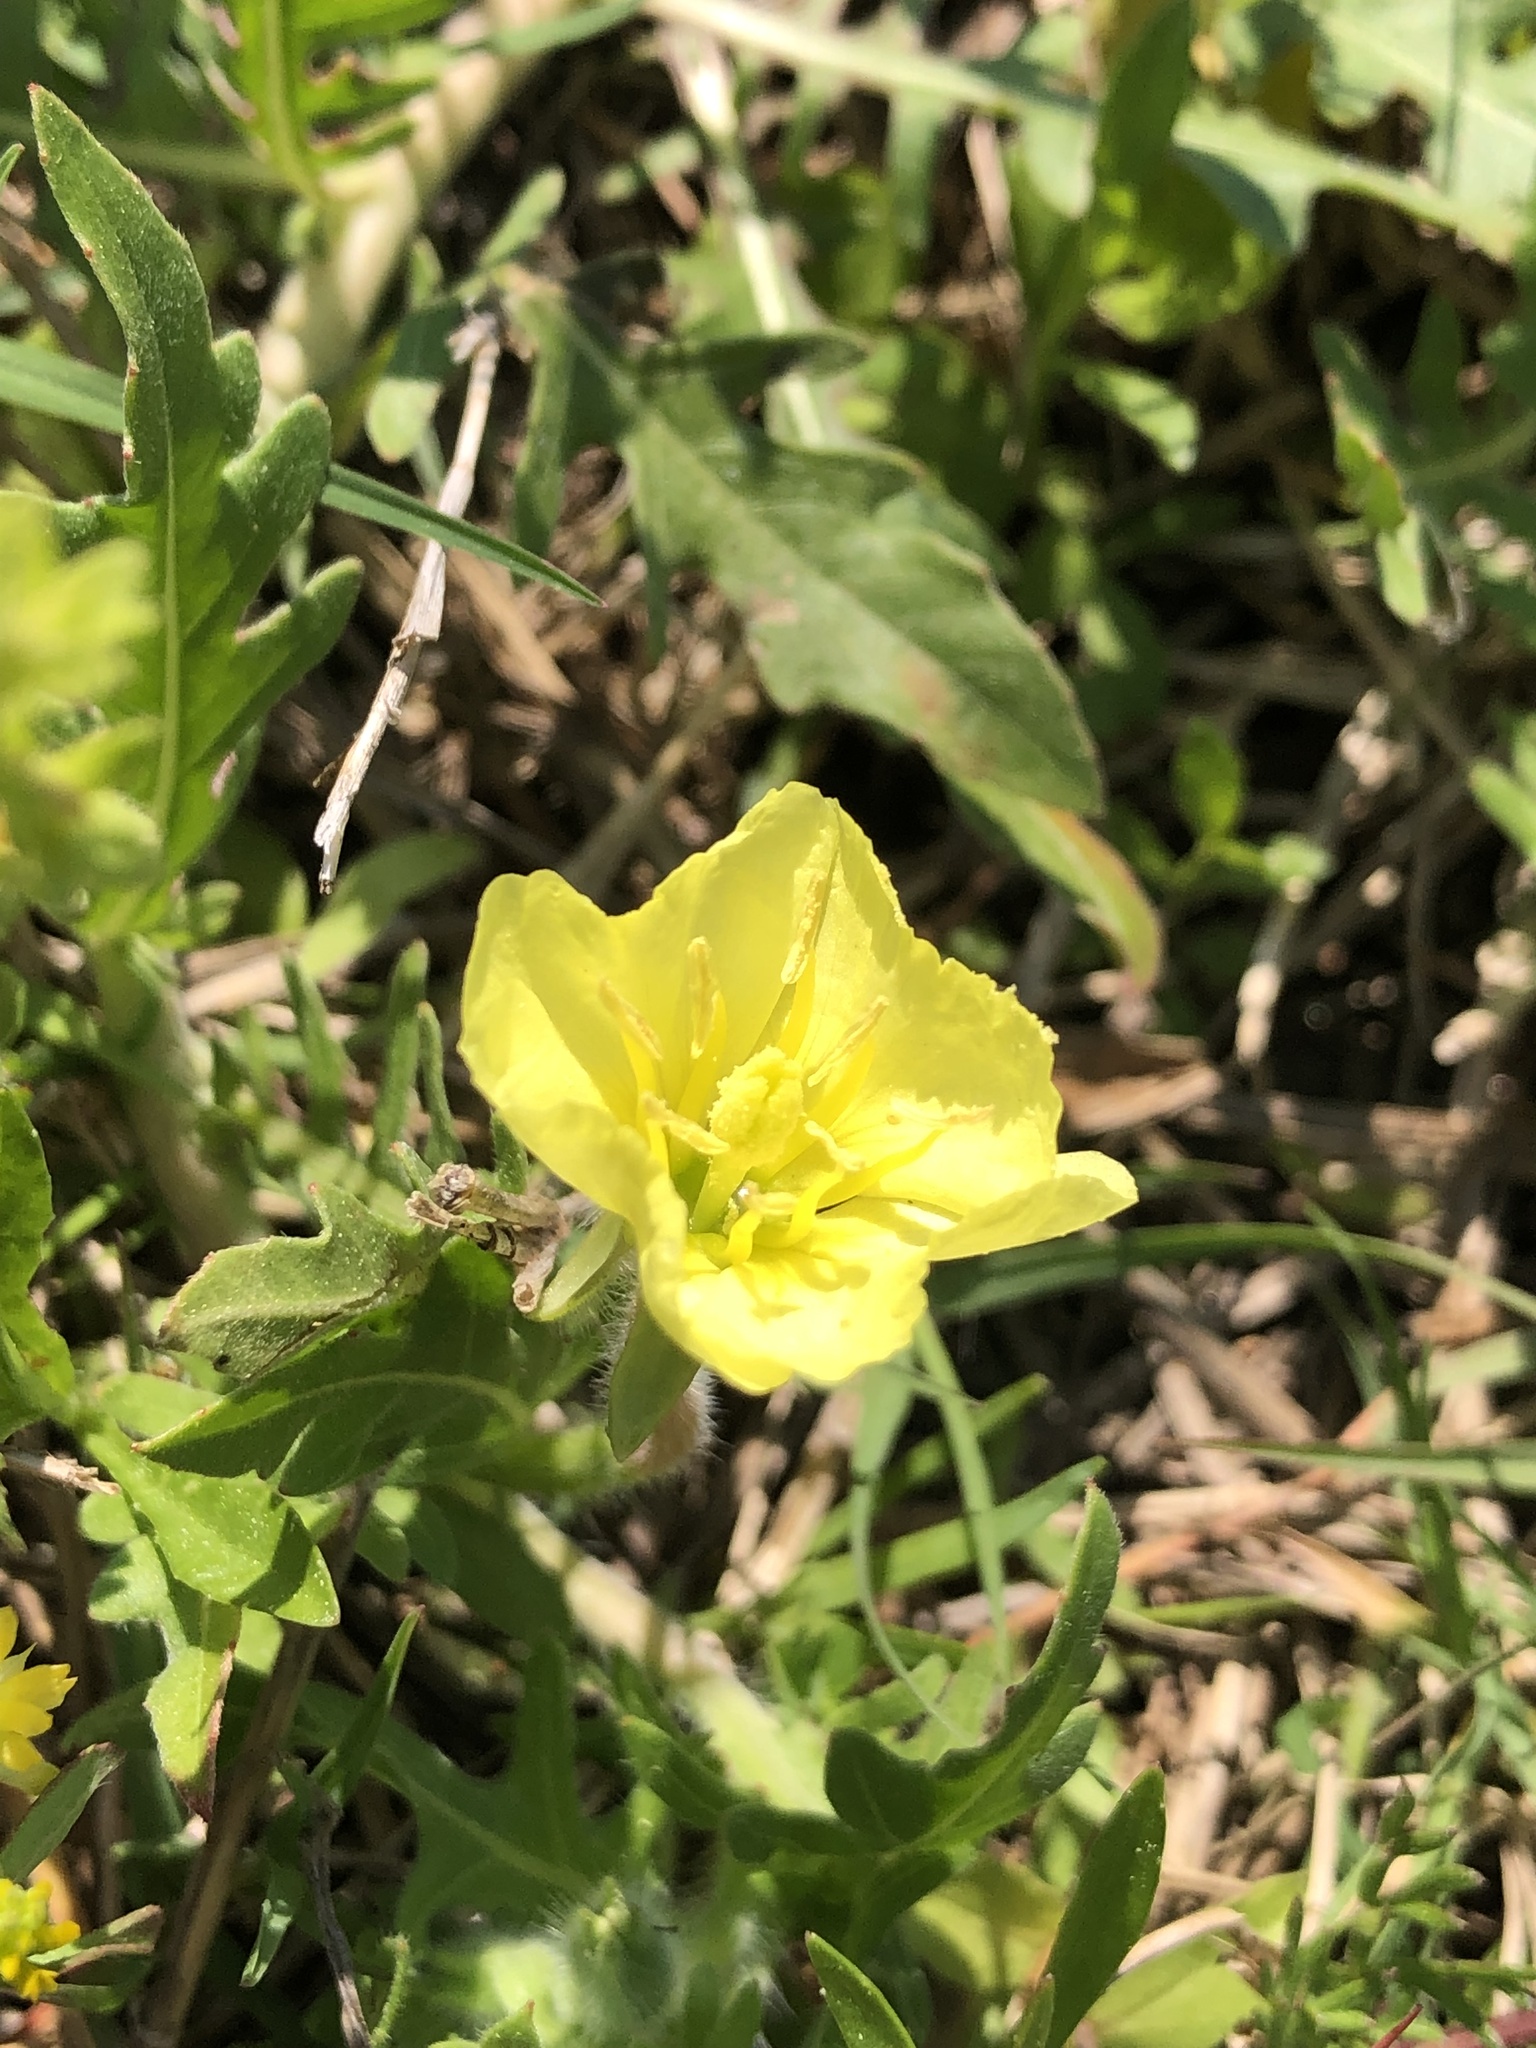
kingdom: Plantae
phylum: Tracheophyta
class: Magnoliopsida
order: Myrtales
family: Onagraceae
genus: Oenothera
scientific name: Oenothera laciniata
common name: Cut-leaved evening-primrose
